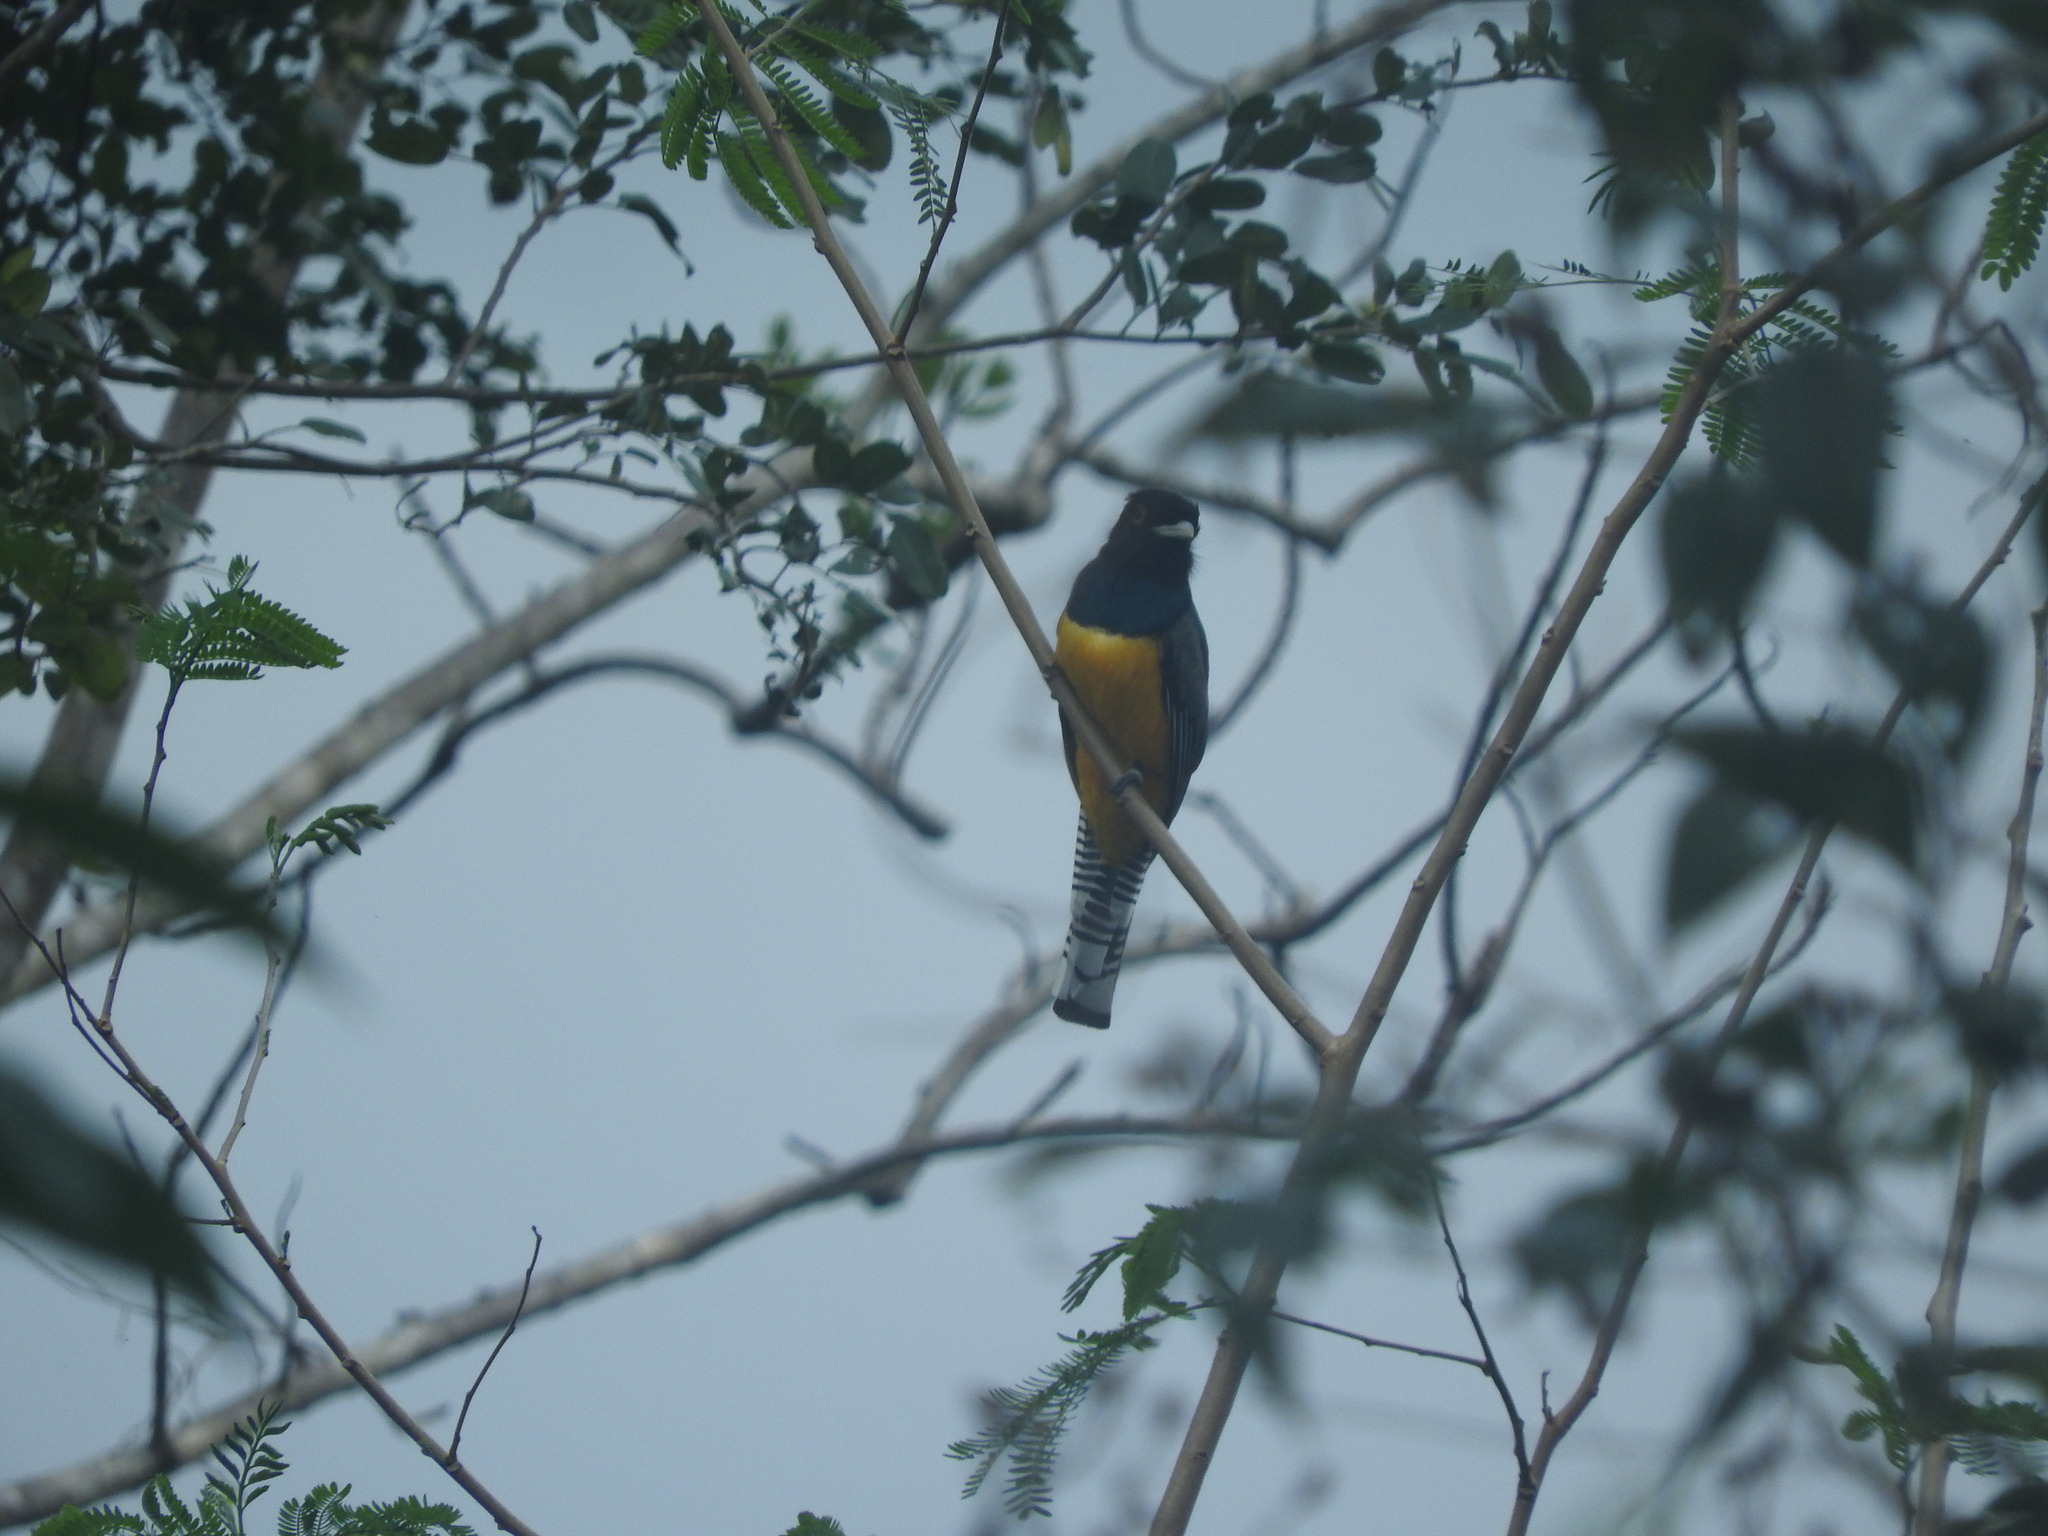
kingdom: Animalia
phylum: Chordata
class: Aves
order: Trogoniformes
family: Trogonidae
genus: Trogon
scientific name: Trogon caligatus
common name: Gartered trogon
